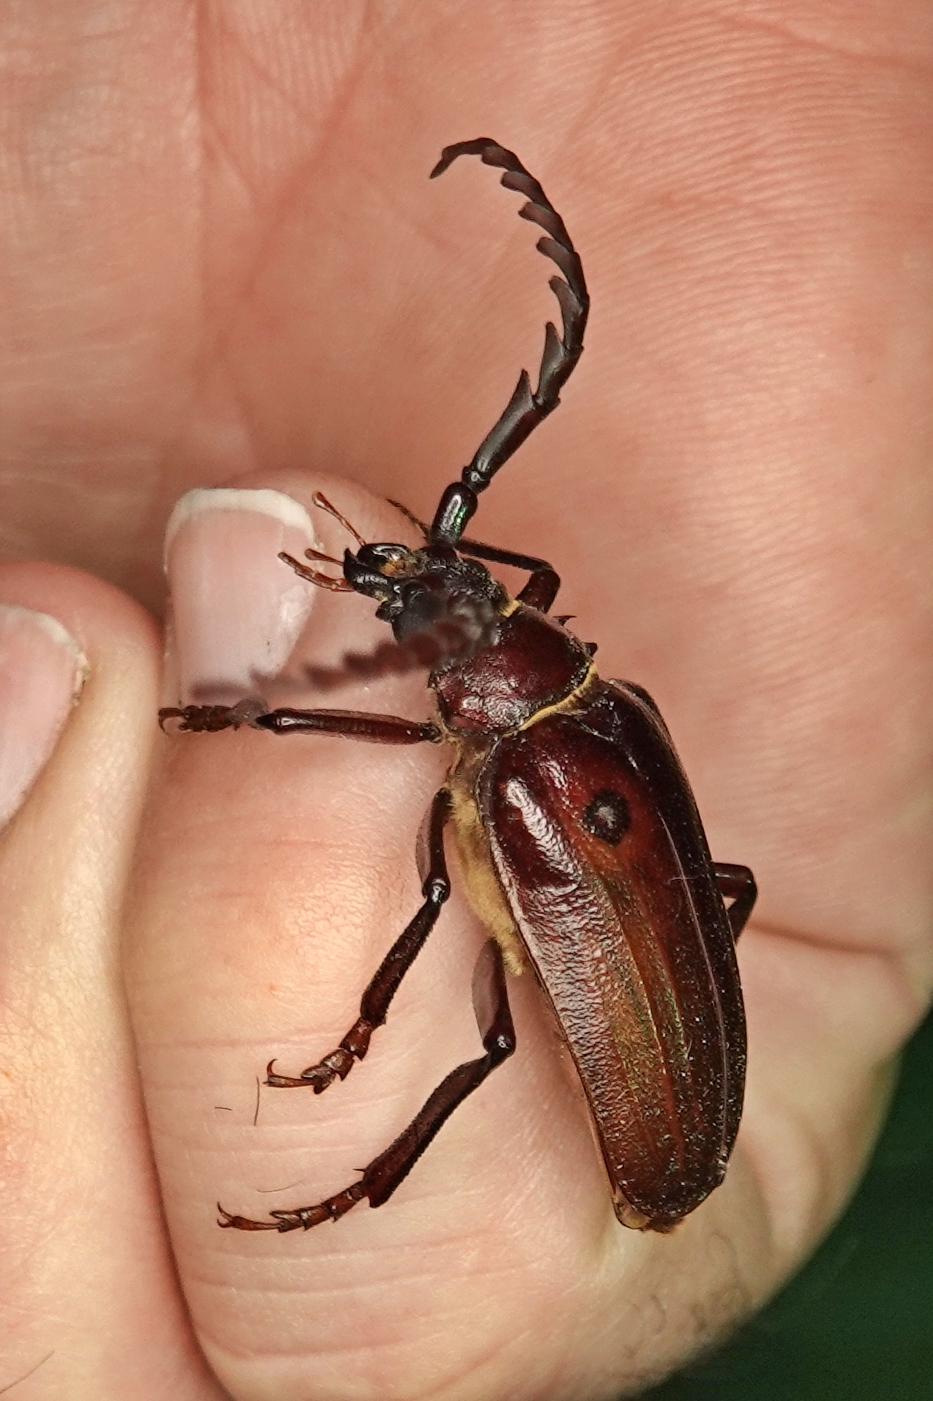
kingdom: Animalia
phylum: Arthropoda
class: Insecta
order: Coleoptera
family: Cerambycidae
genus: Prionus
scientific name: Prionus californicus
